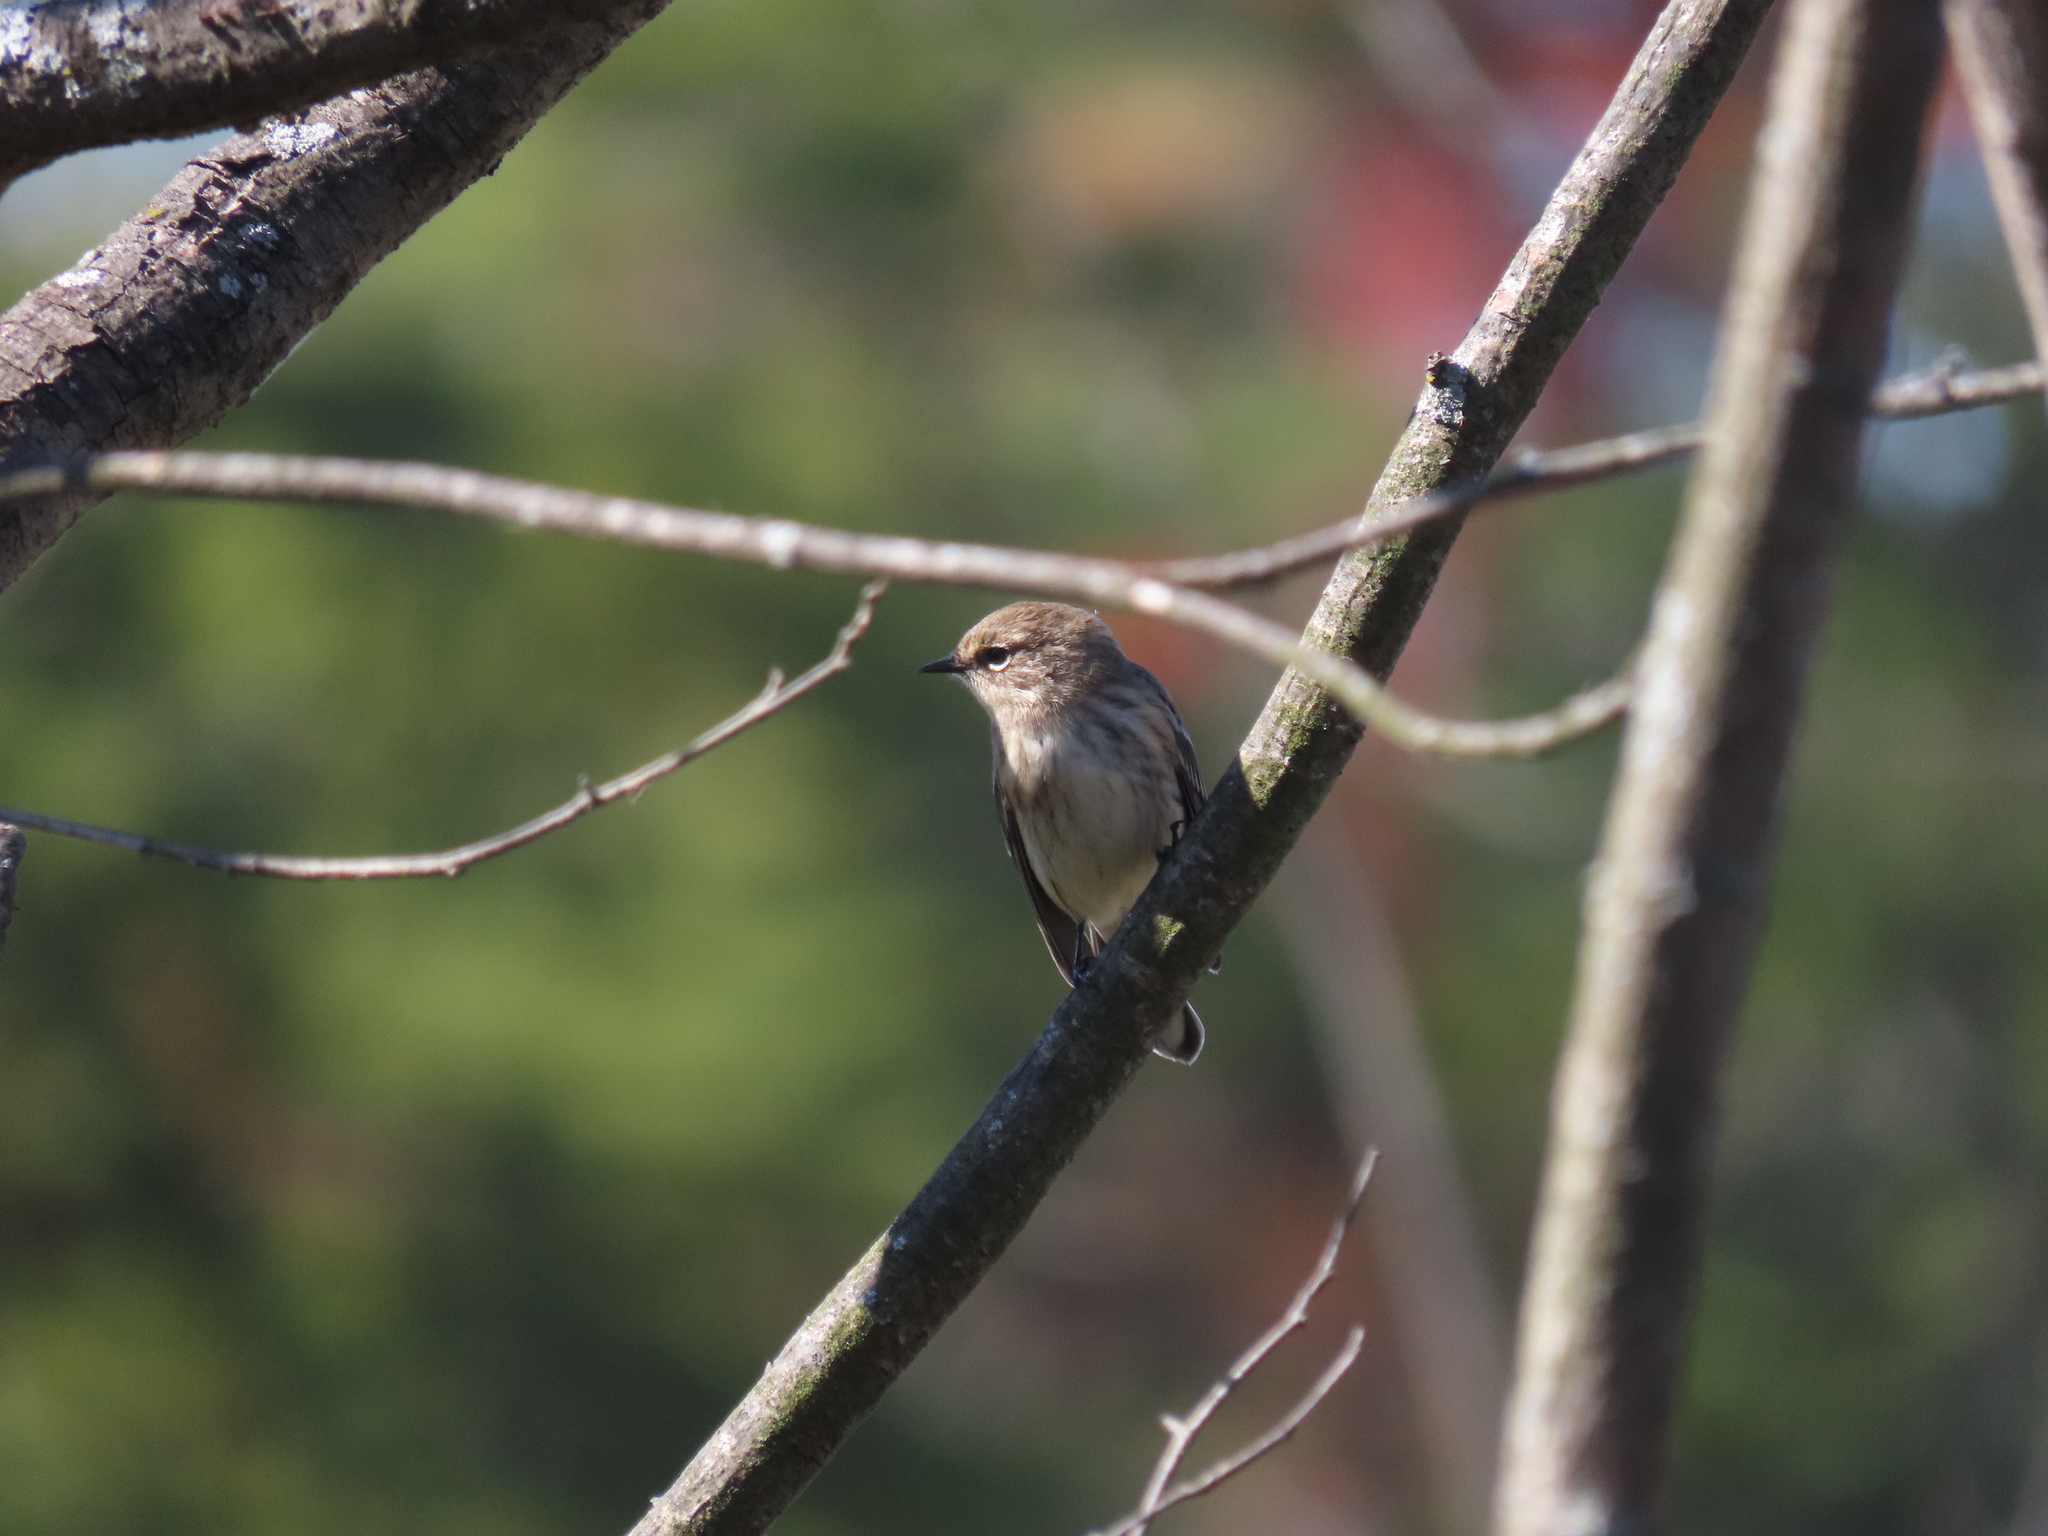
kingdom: Animalia
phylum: Chordata
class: Aves
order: Passeriformes
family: Parulidae
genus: Setophaga
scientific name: Setophaga coronata
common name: Myrtle warbler
